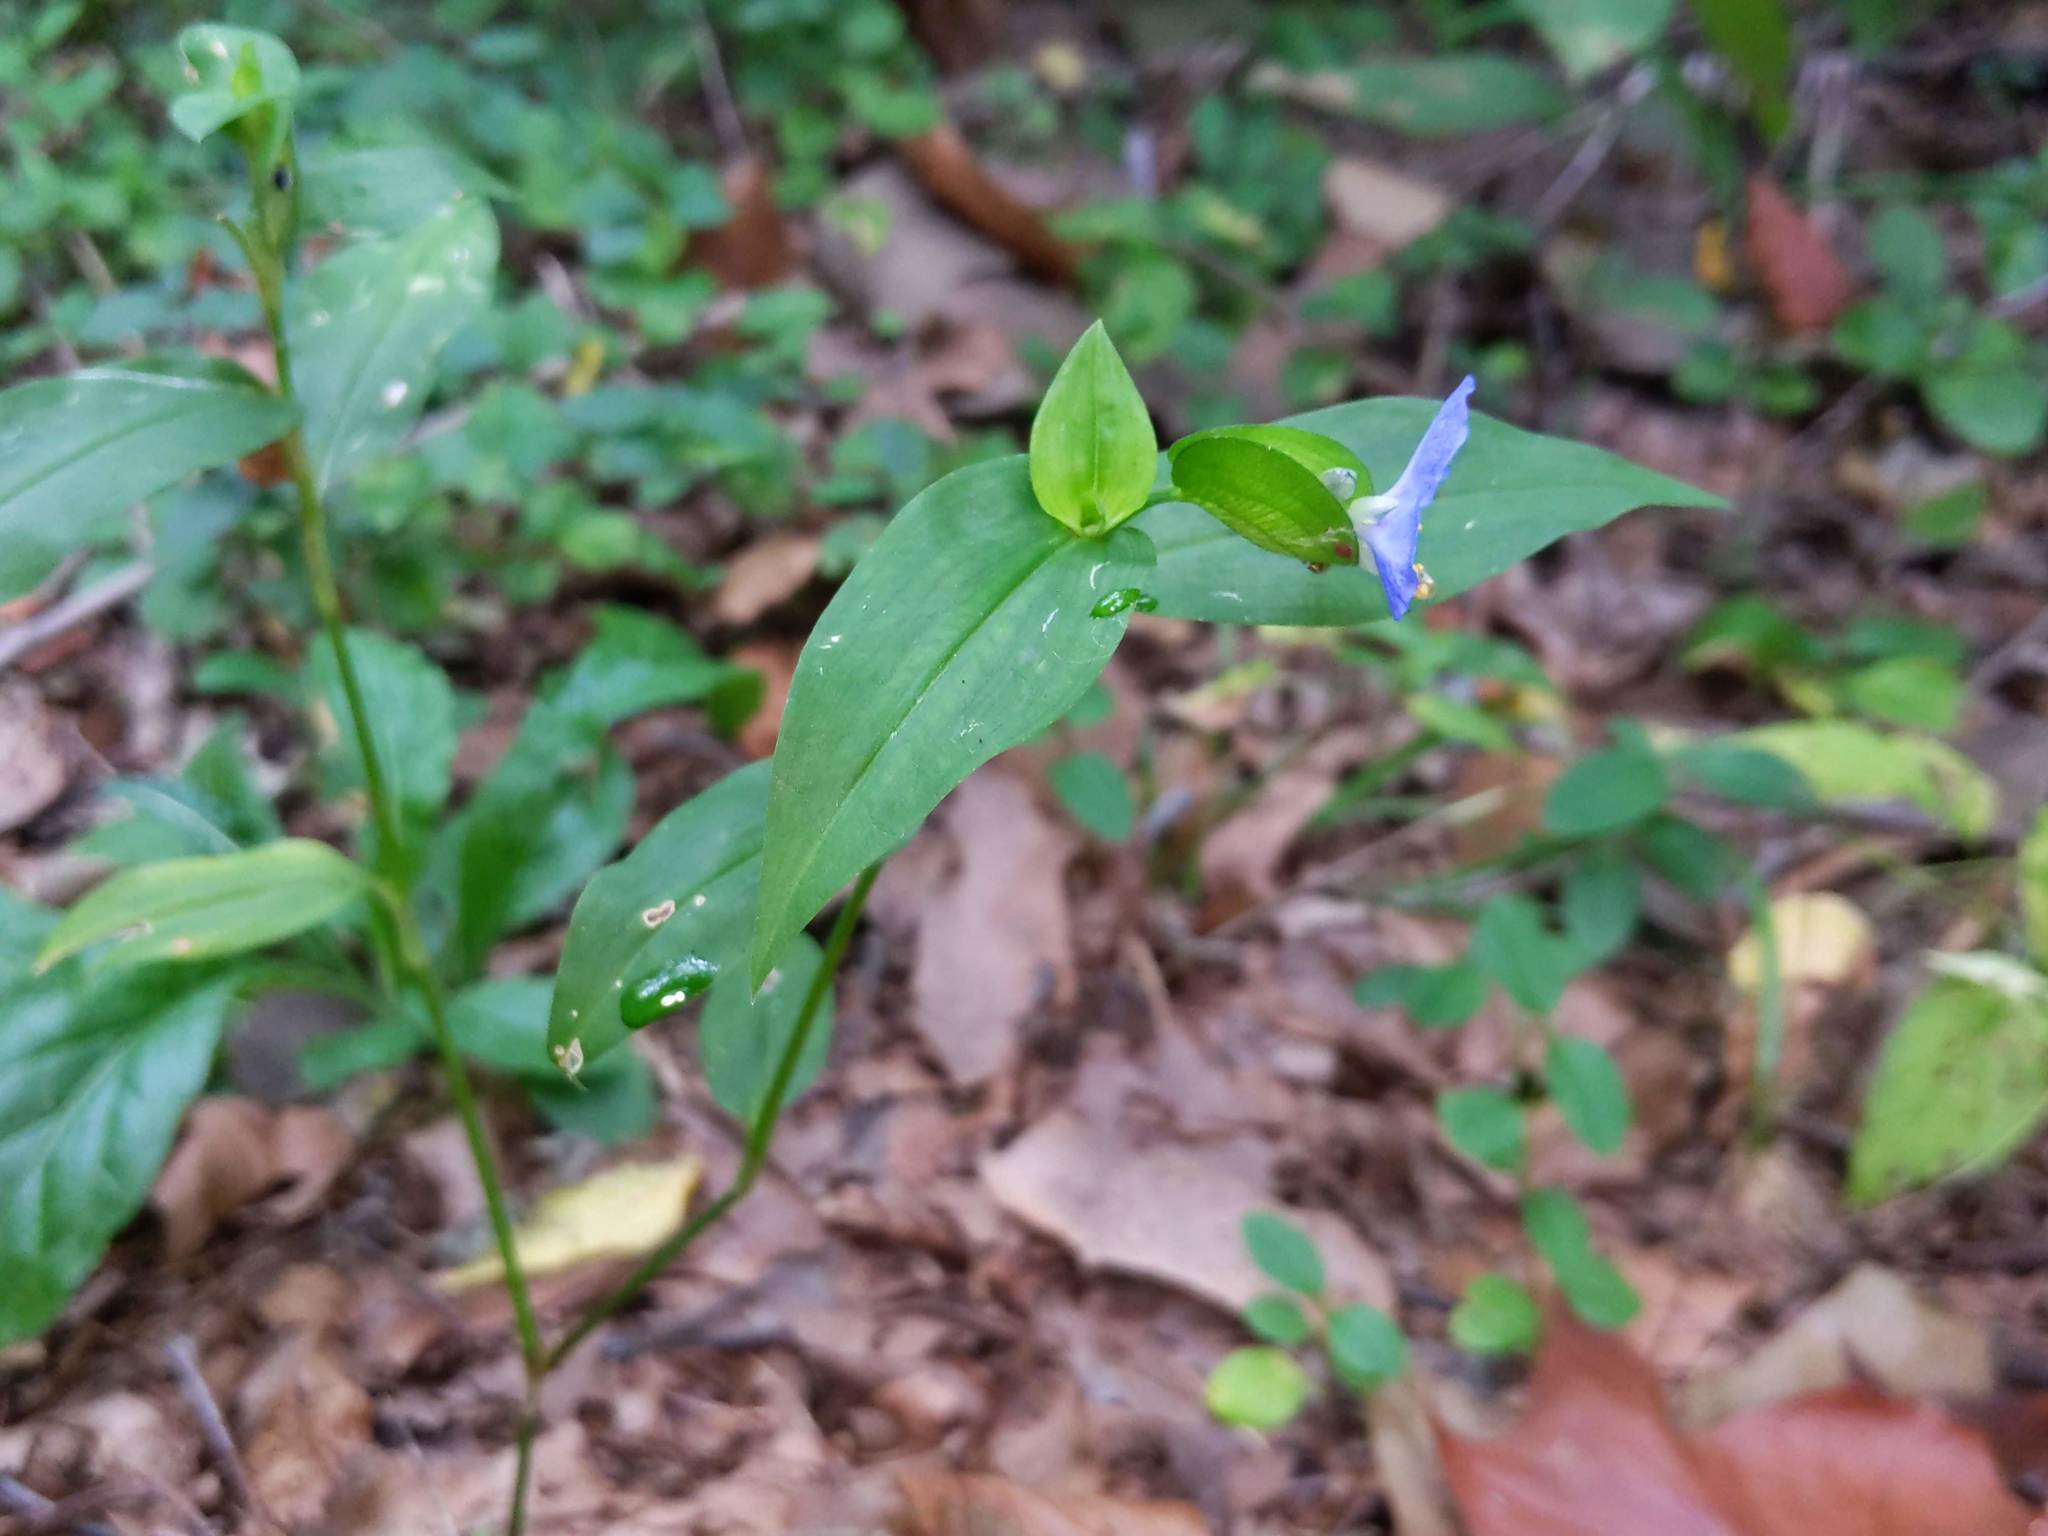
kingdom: Plantae
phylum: Tracheophyta
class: Liliopsida
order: Commelinales
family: Commelinaceae
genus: Commelina
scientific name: Commelina communis
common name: Asiatic dayflower
